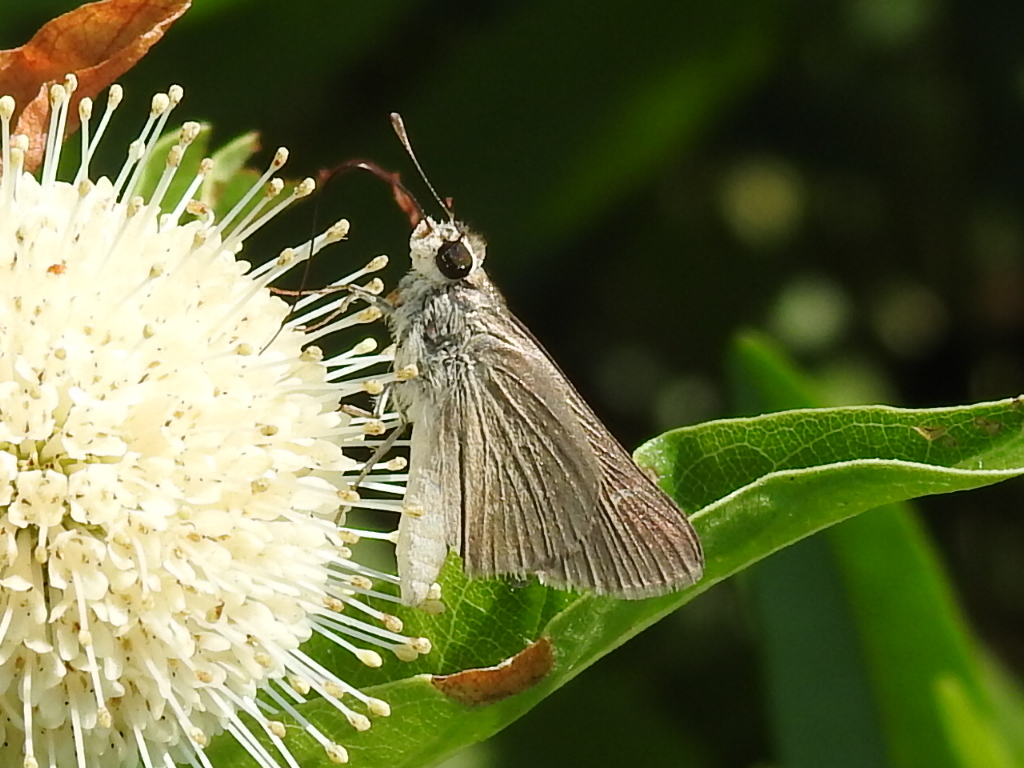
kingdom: Animalia
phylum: Arthropoda
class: Insecta
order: Lepidoptera
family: Hesperiidae
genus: Lerodea
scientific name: Lerodea eufala
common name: Eufala skipper
